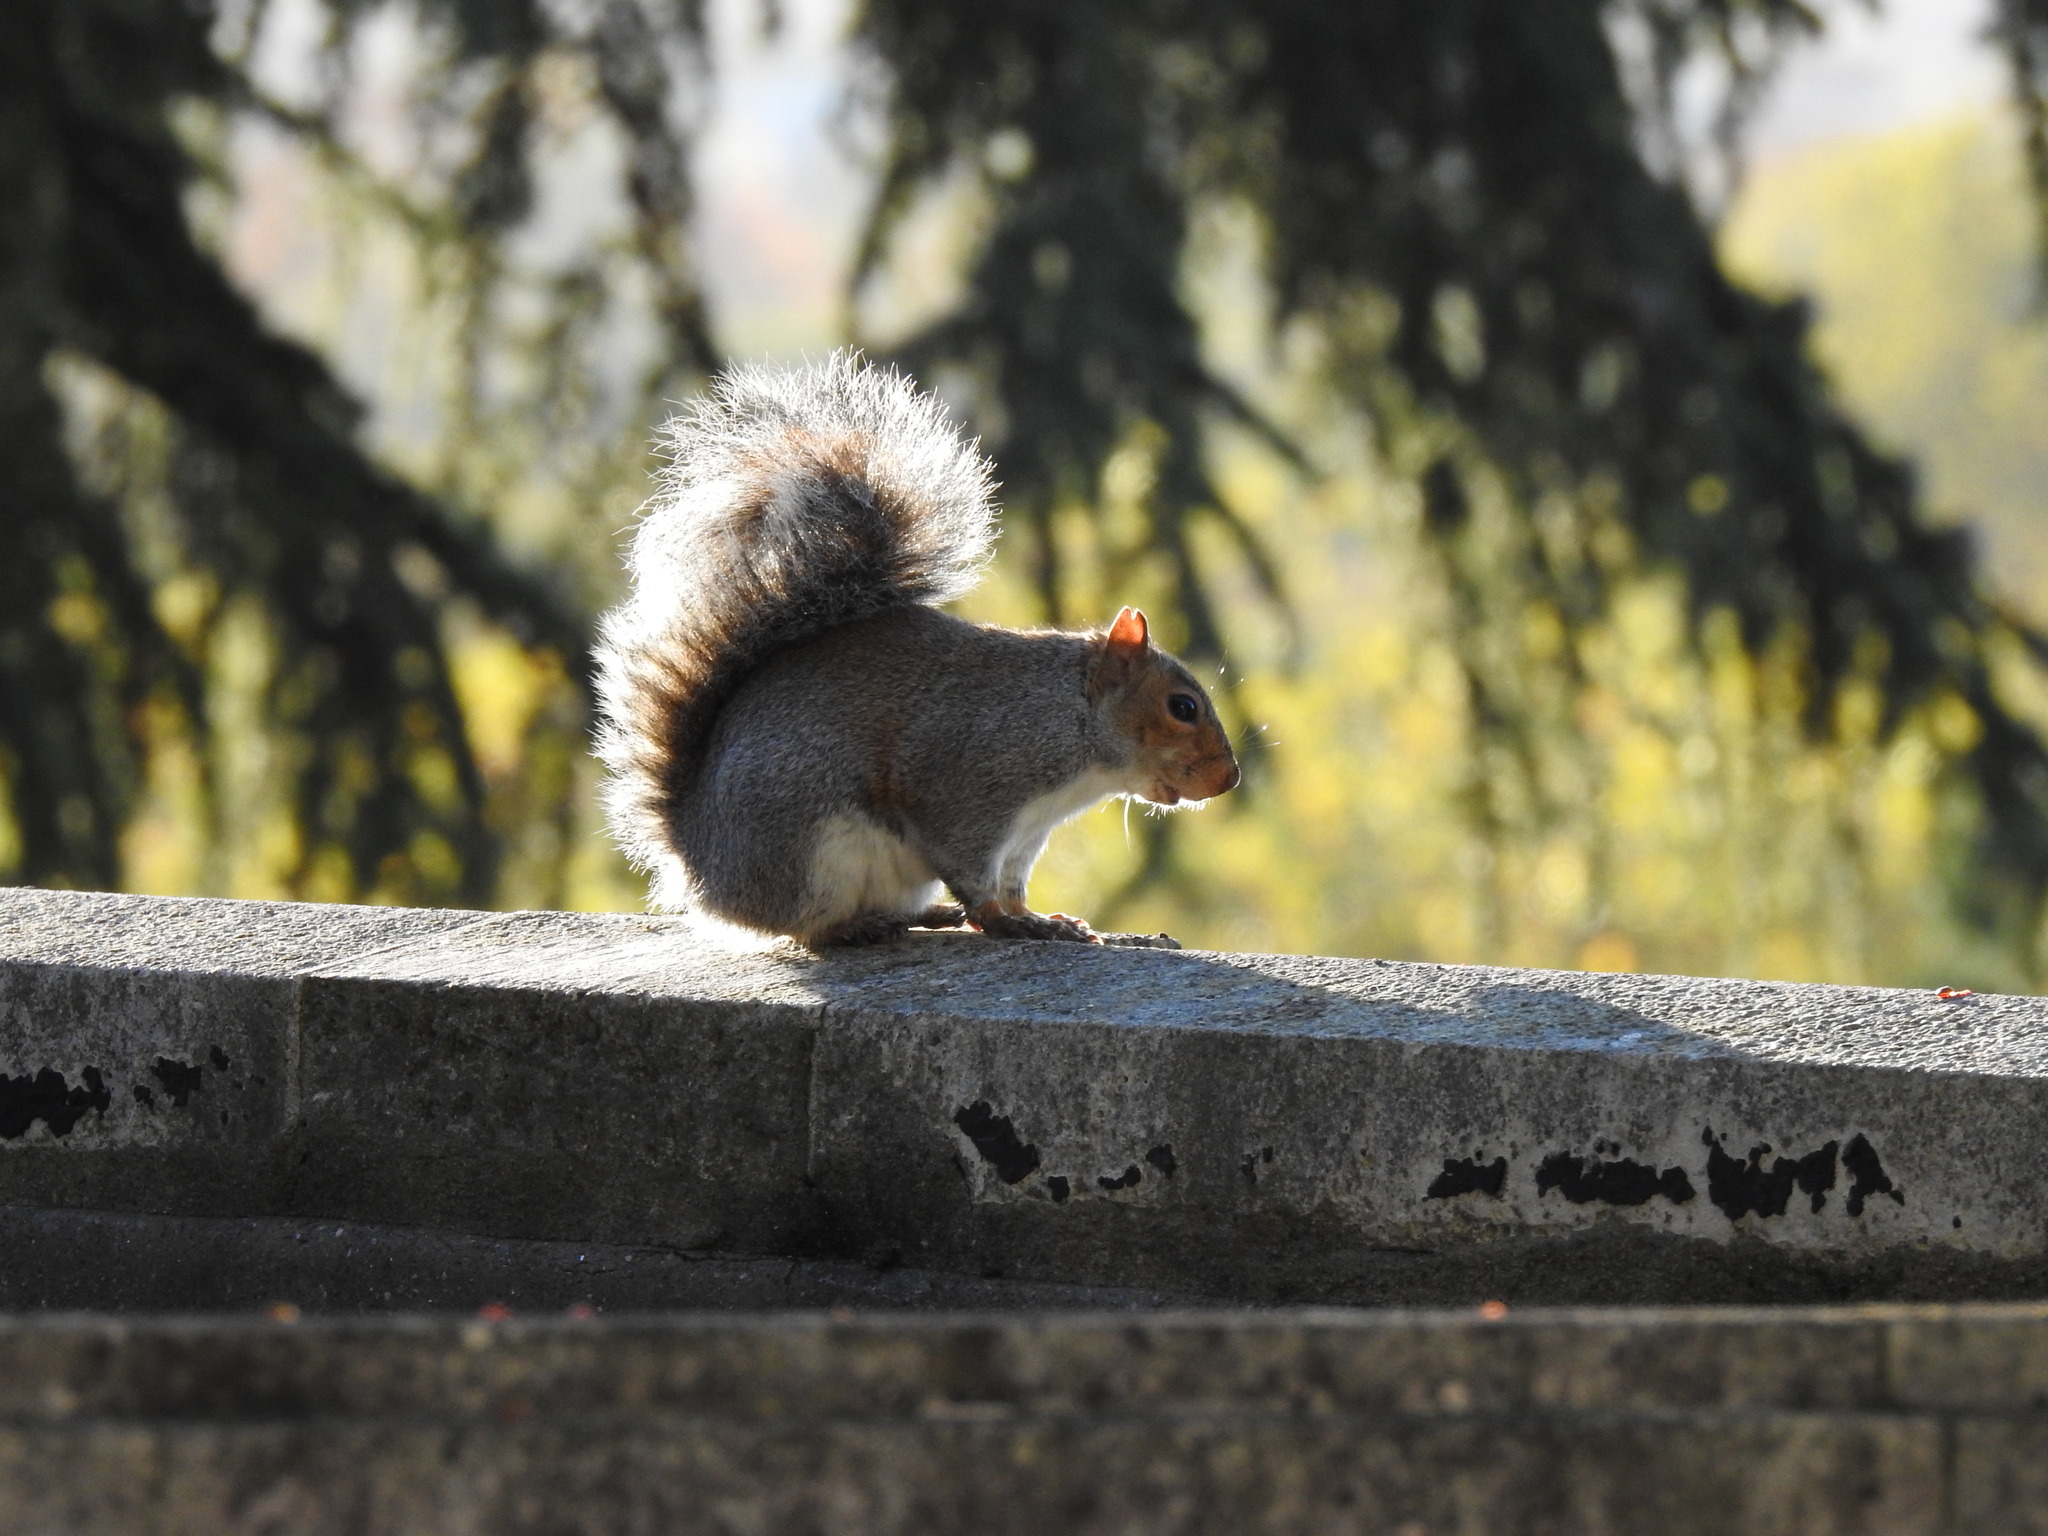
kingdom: Animalia
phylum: Chordata
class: Mammalia
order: Rodentia
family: Sciuridae
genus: Sciurus
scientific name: Sciurus carolinensis
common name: Eastern gray squirrel
